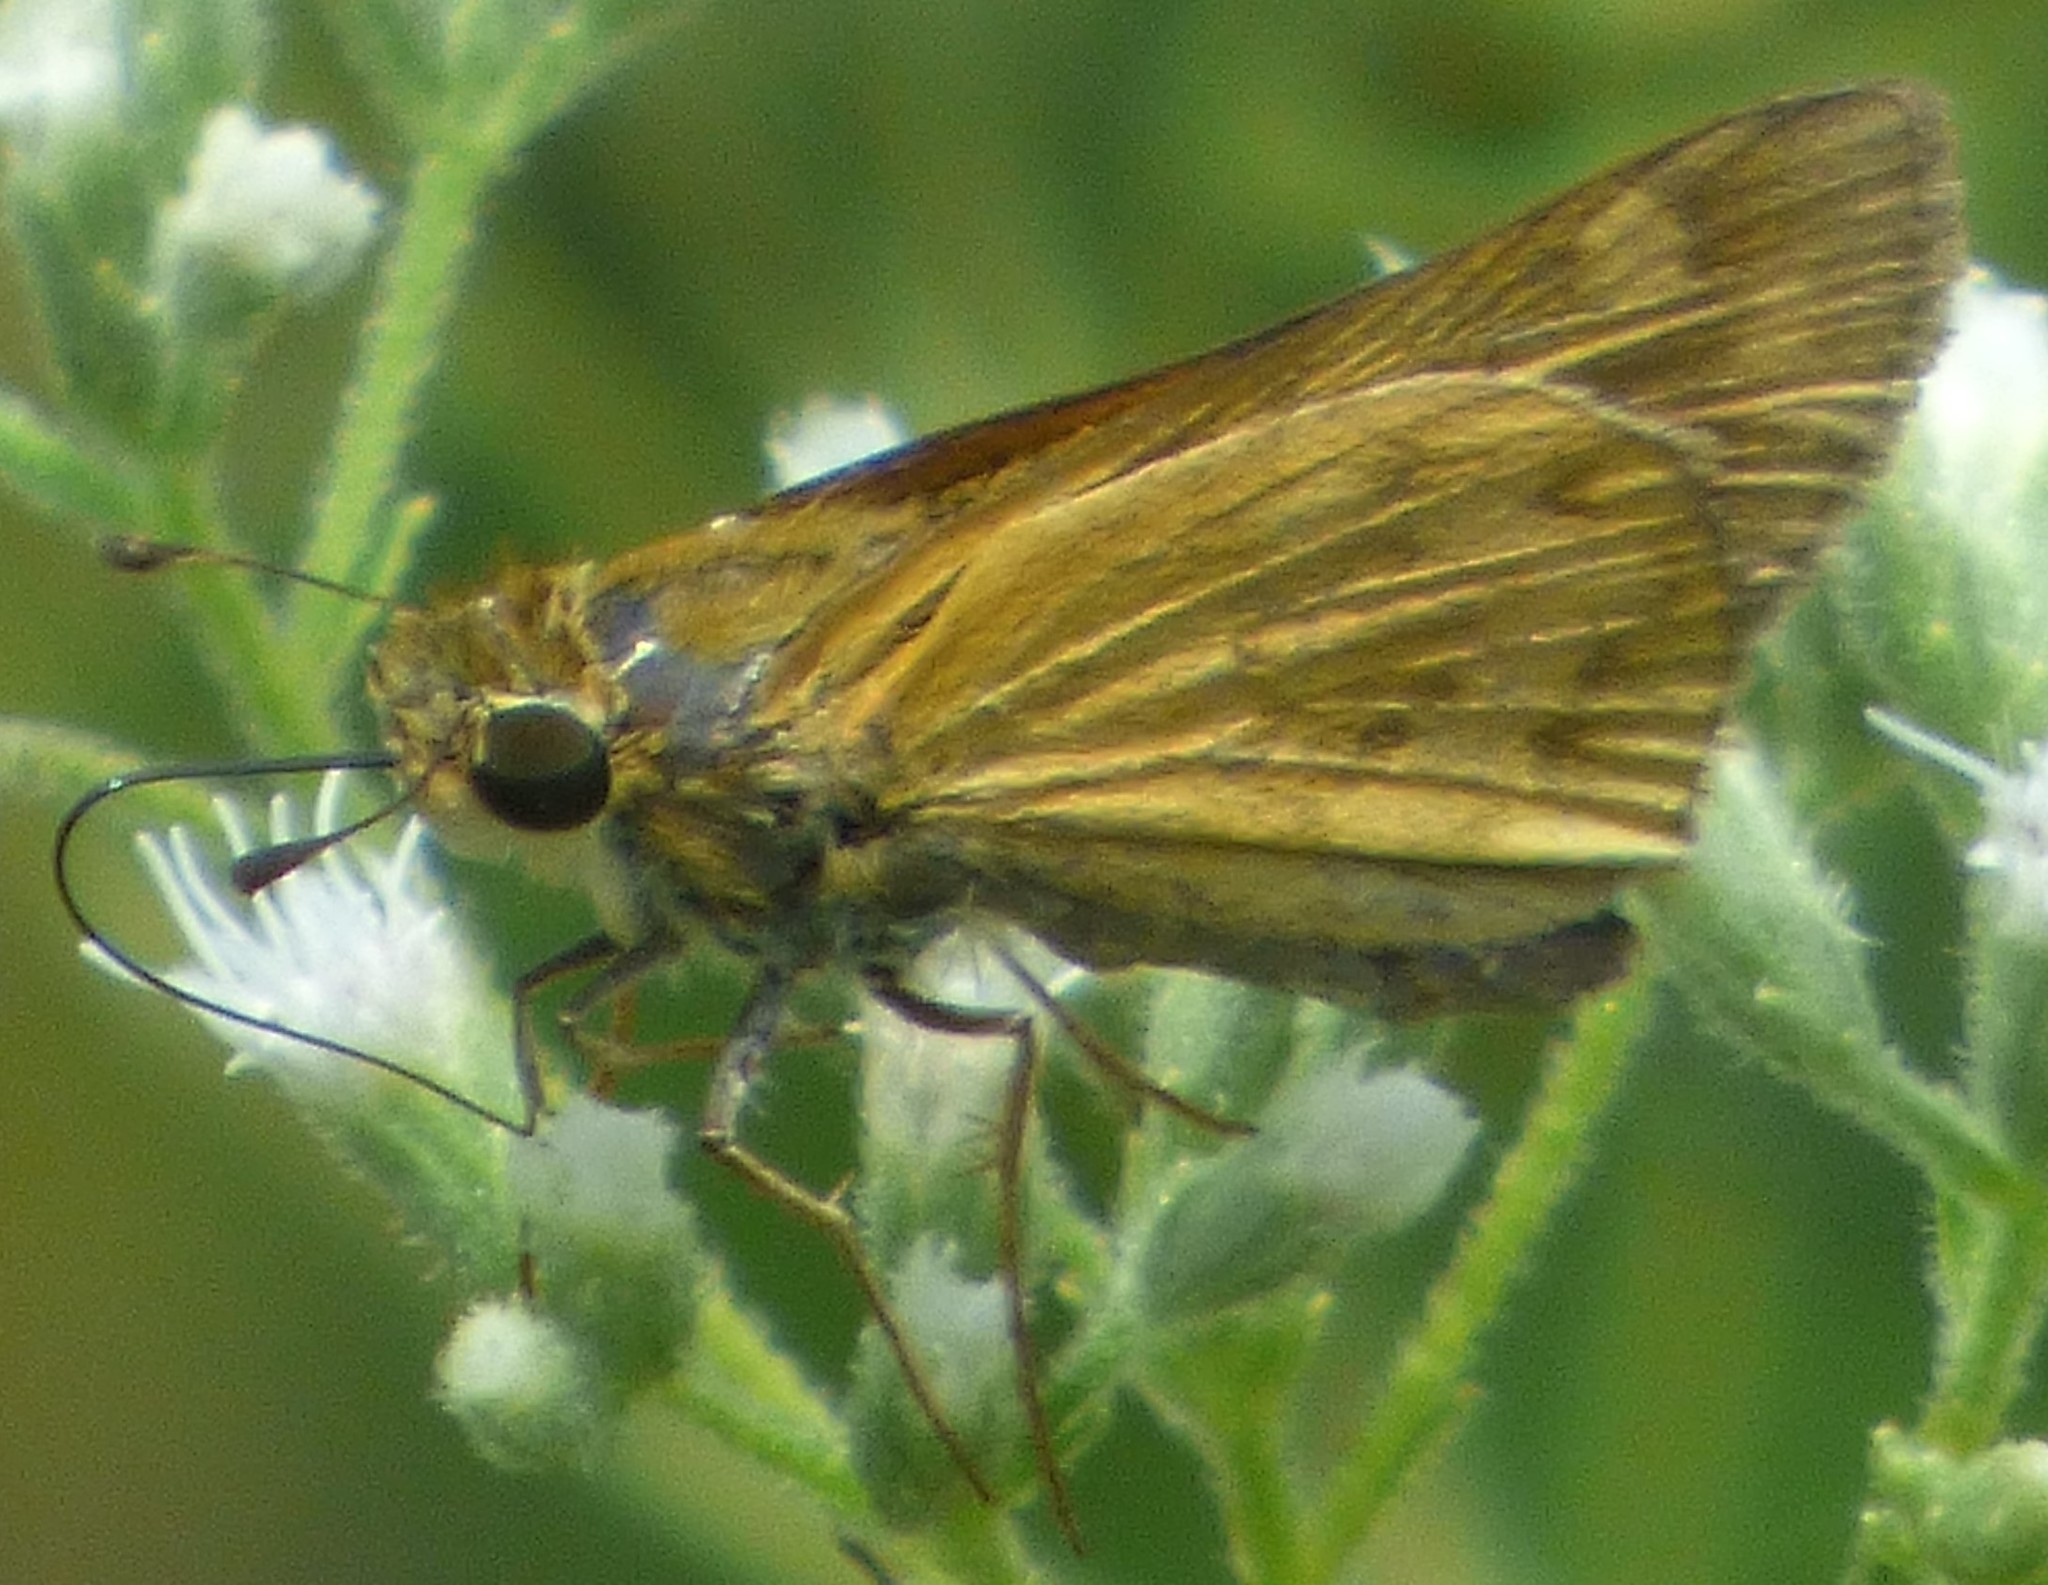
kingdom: Animalia
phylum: Arthropoda
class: Insecta
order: Lepidoptera
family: Hesperiidae
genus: Atalopedes
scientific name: Atalopedes
